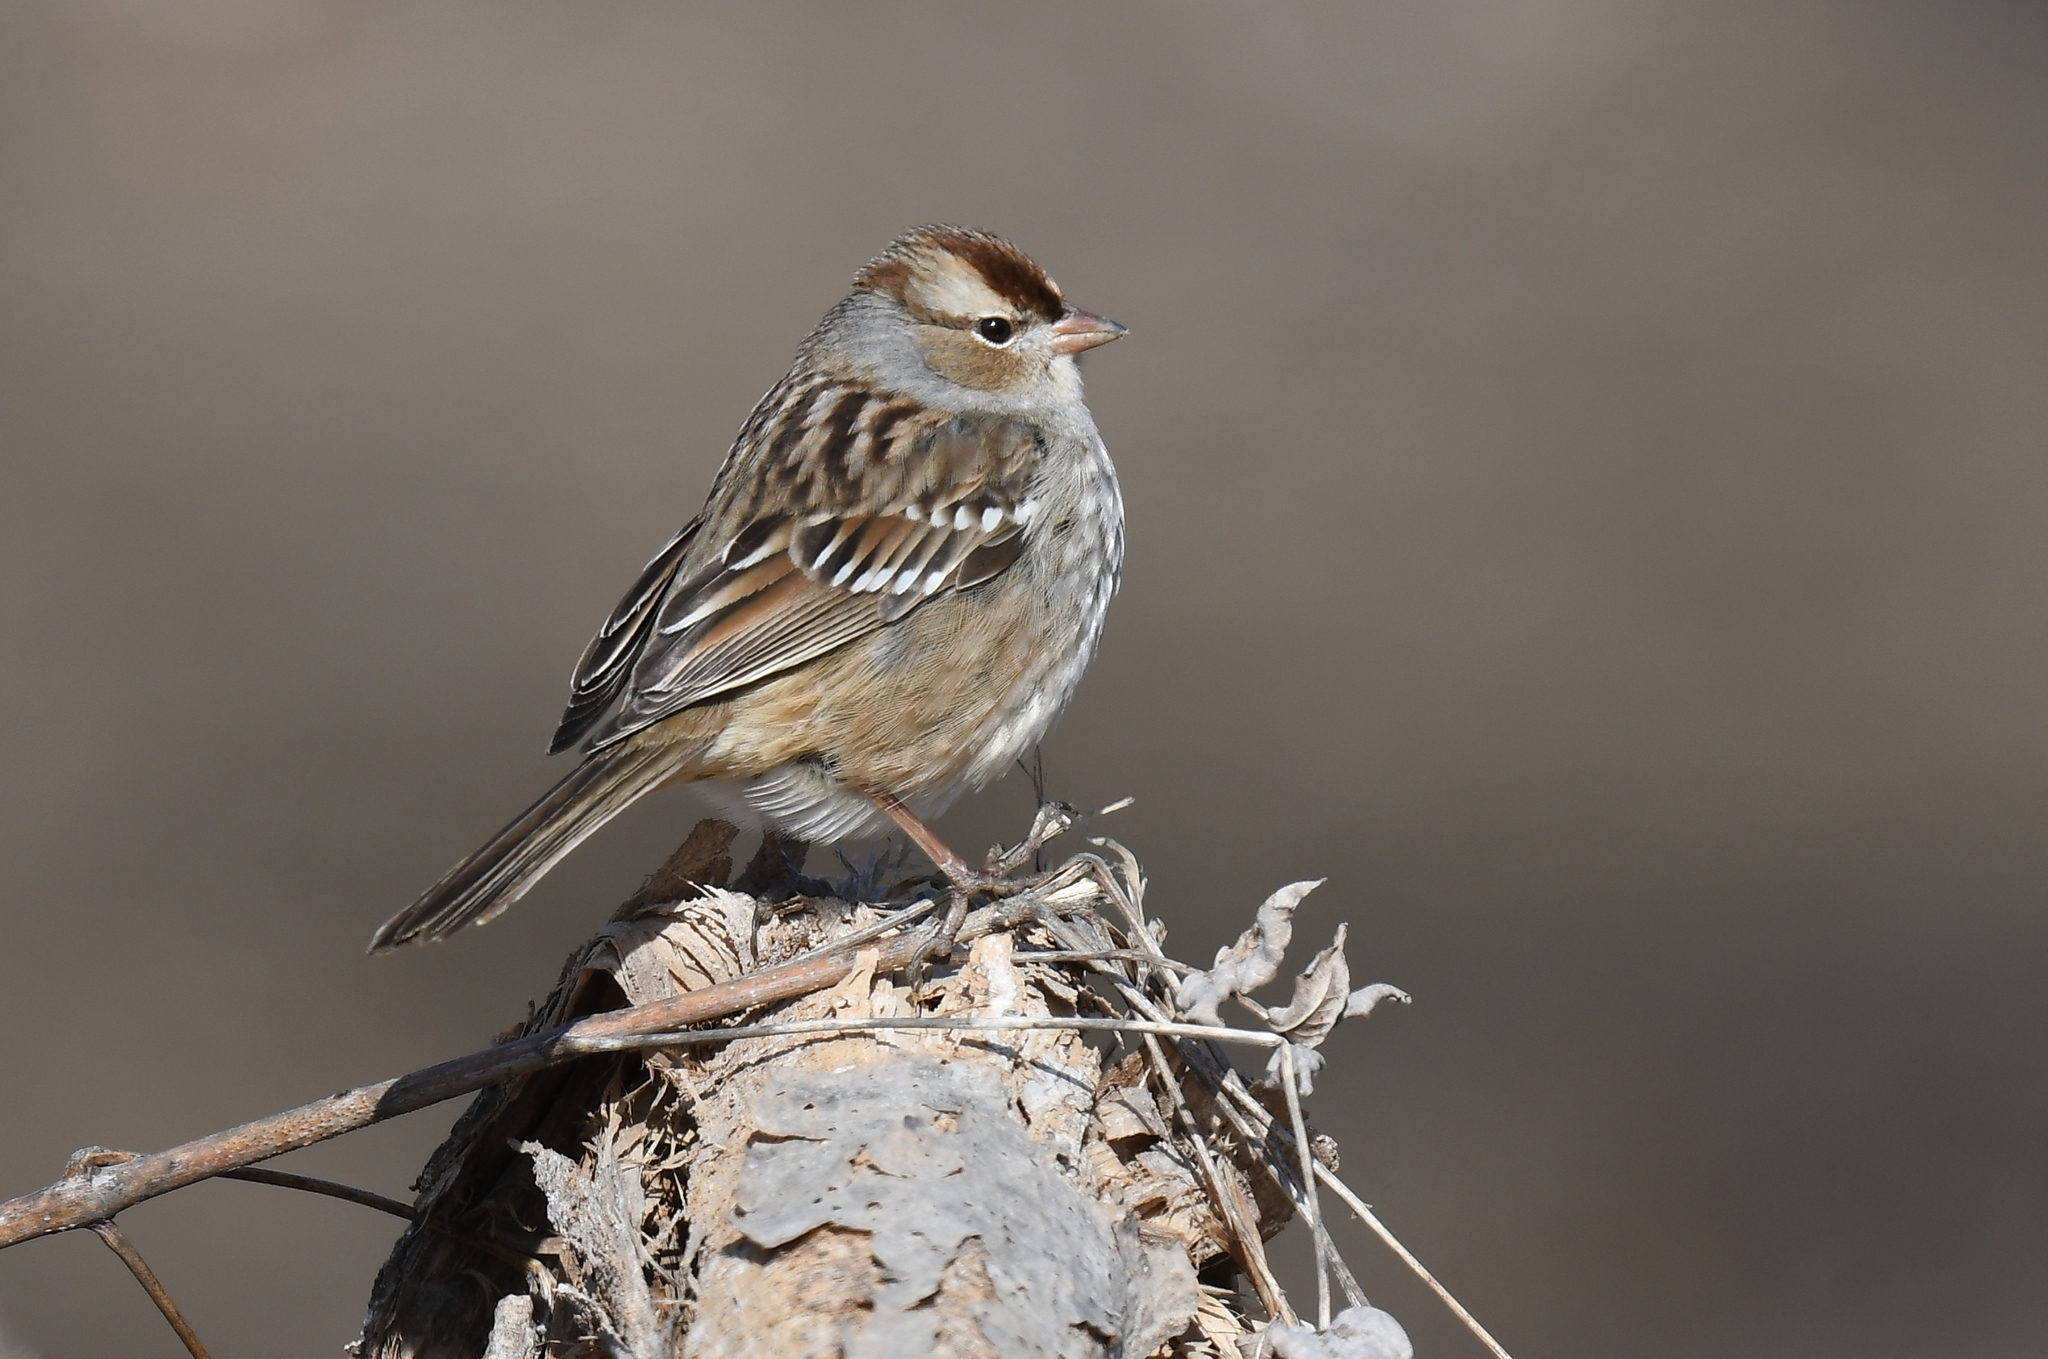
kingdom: Animalia
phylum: Chordata
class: Aves
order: Passeriformes
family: Passerellidae
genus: Zonotrichia
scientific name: Zonotrichia leucophrys
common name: White-crowned sparrow
